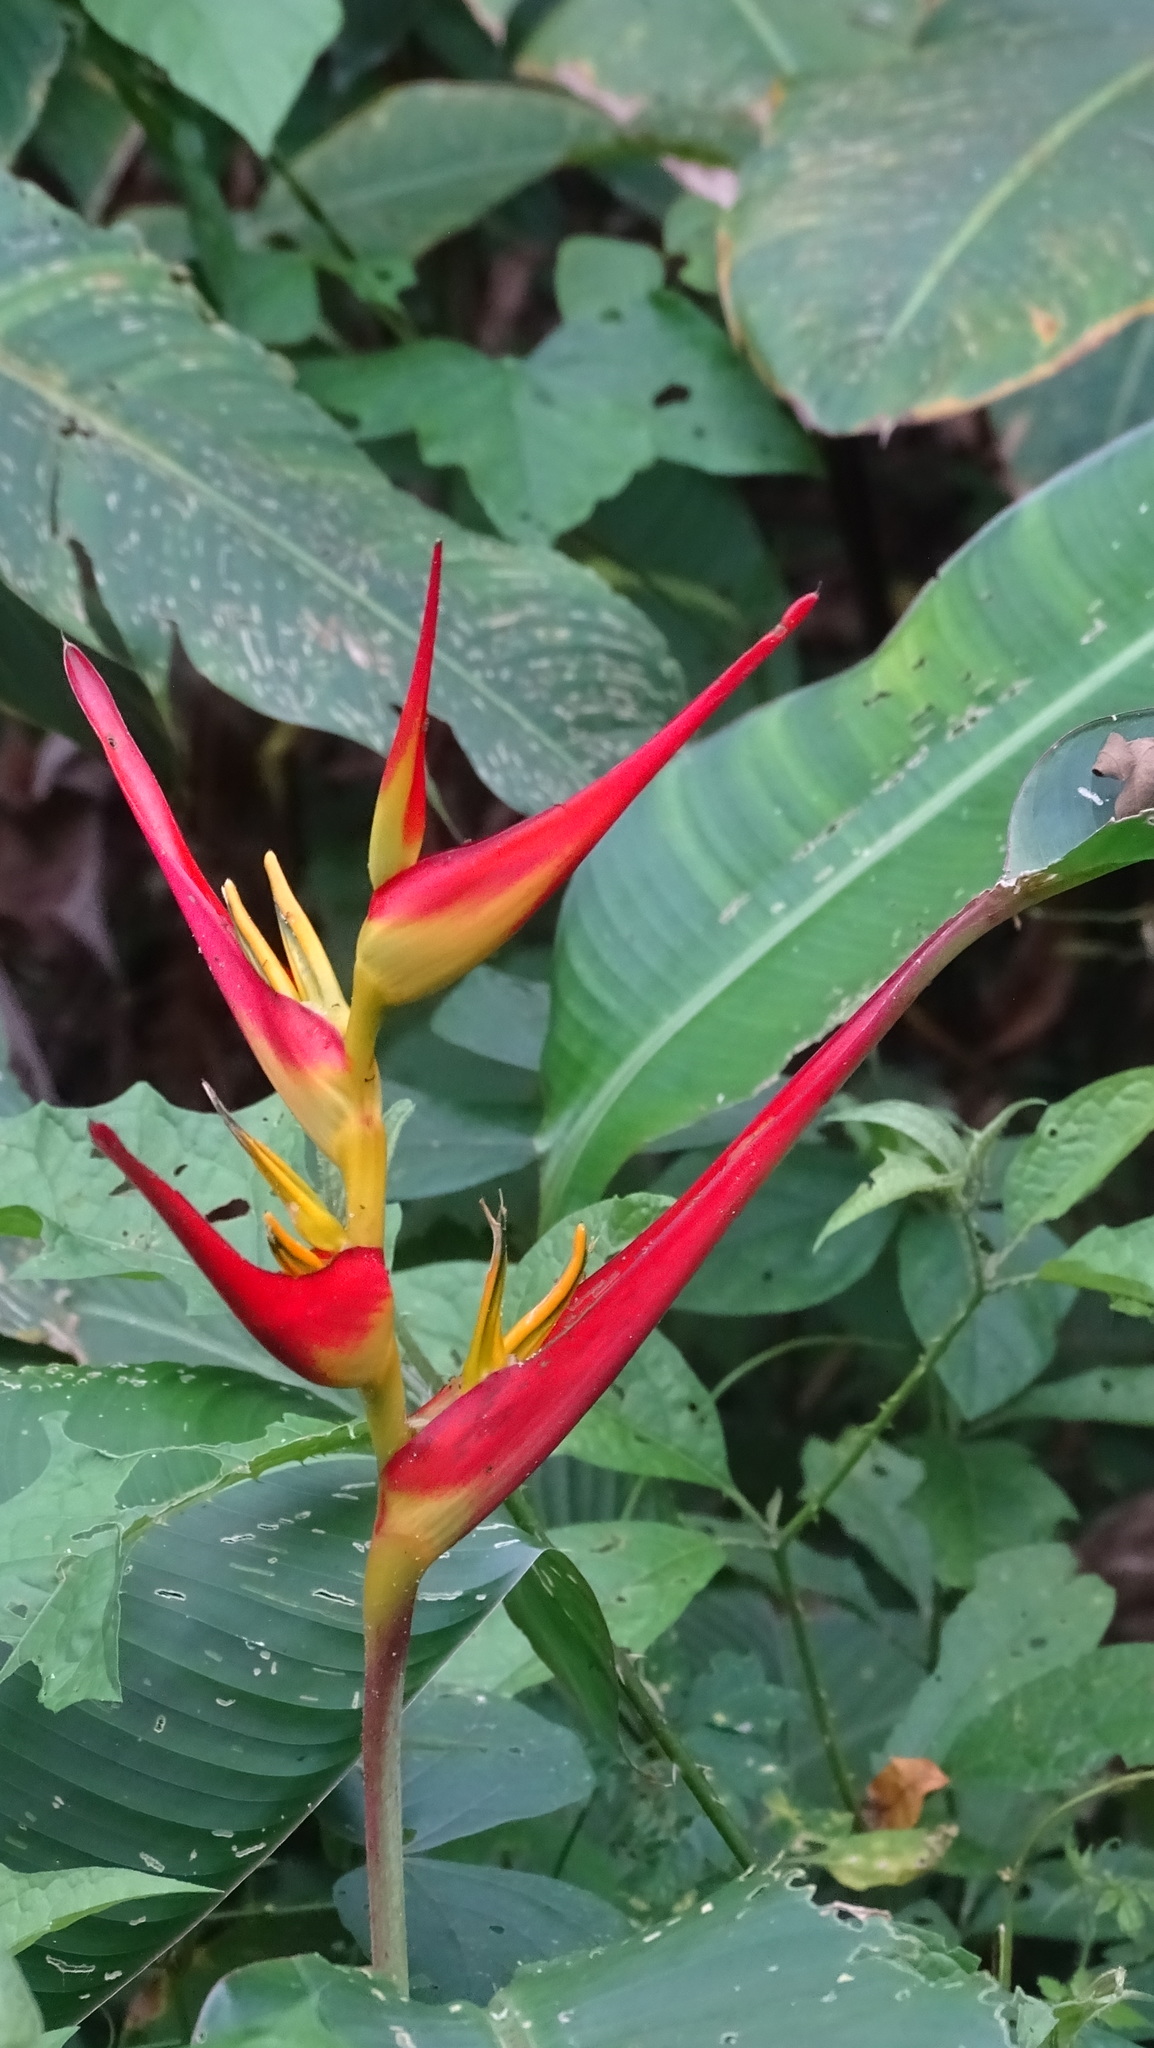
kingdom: Plantae
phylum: Tracheophyta
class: Liliopsida
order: Zingiberales
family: Heliconiaceae
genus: Heliconia
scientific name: Heliconia latispatha
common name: Expanded lobsterclaw
